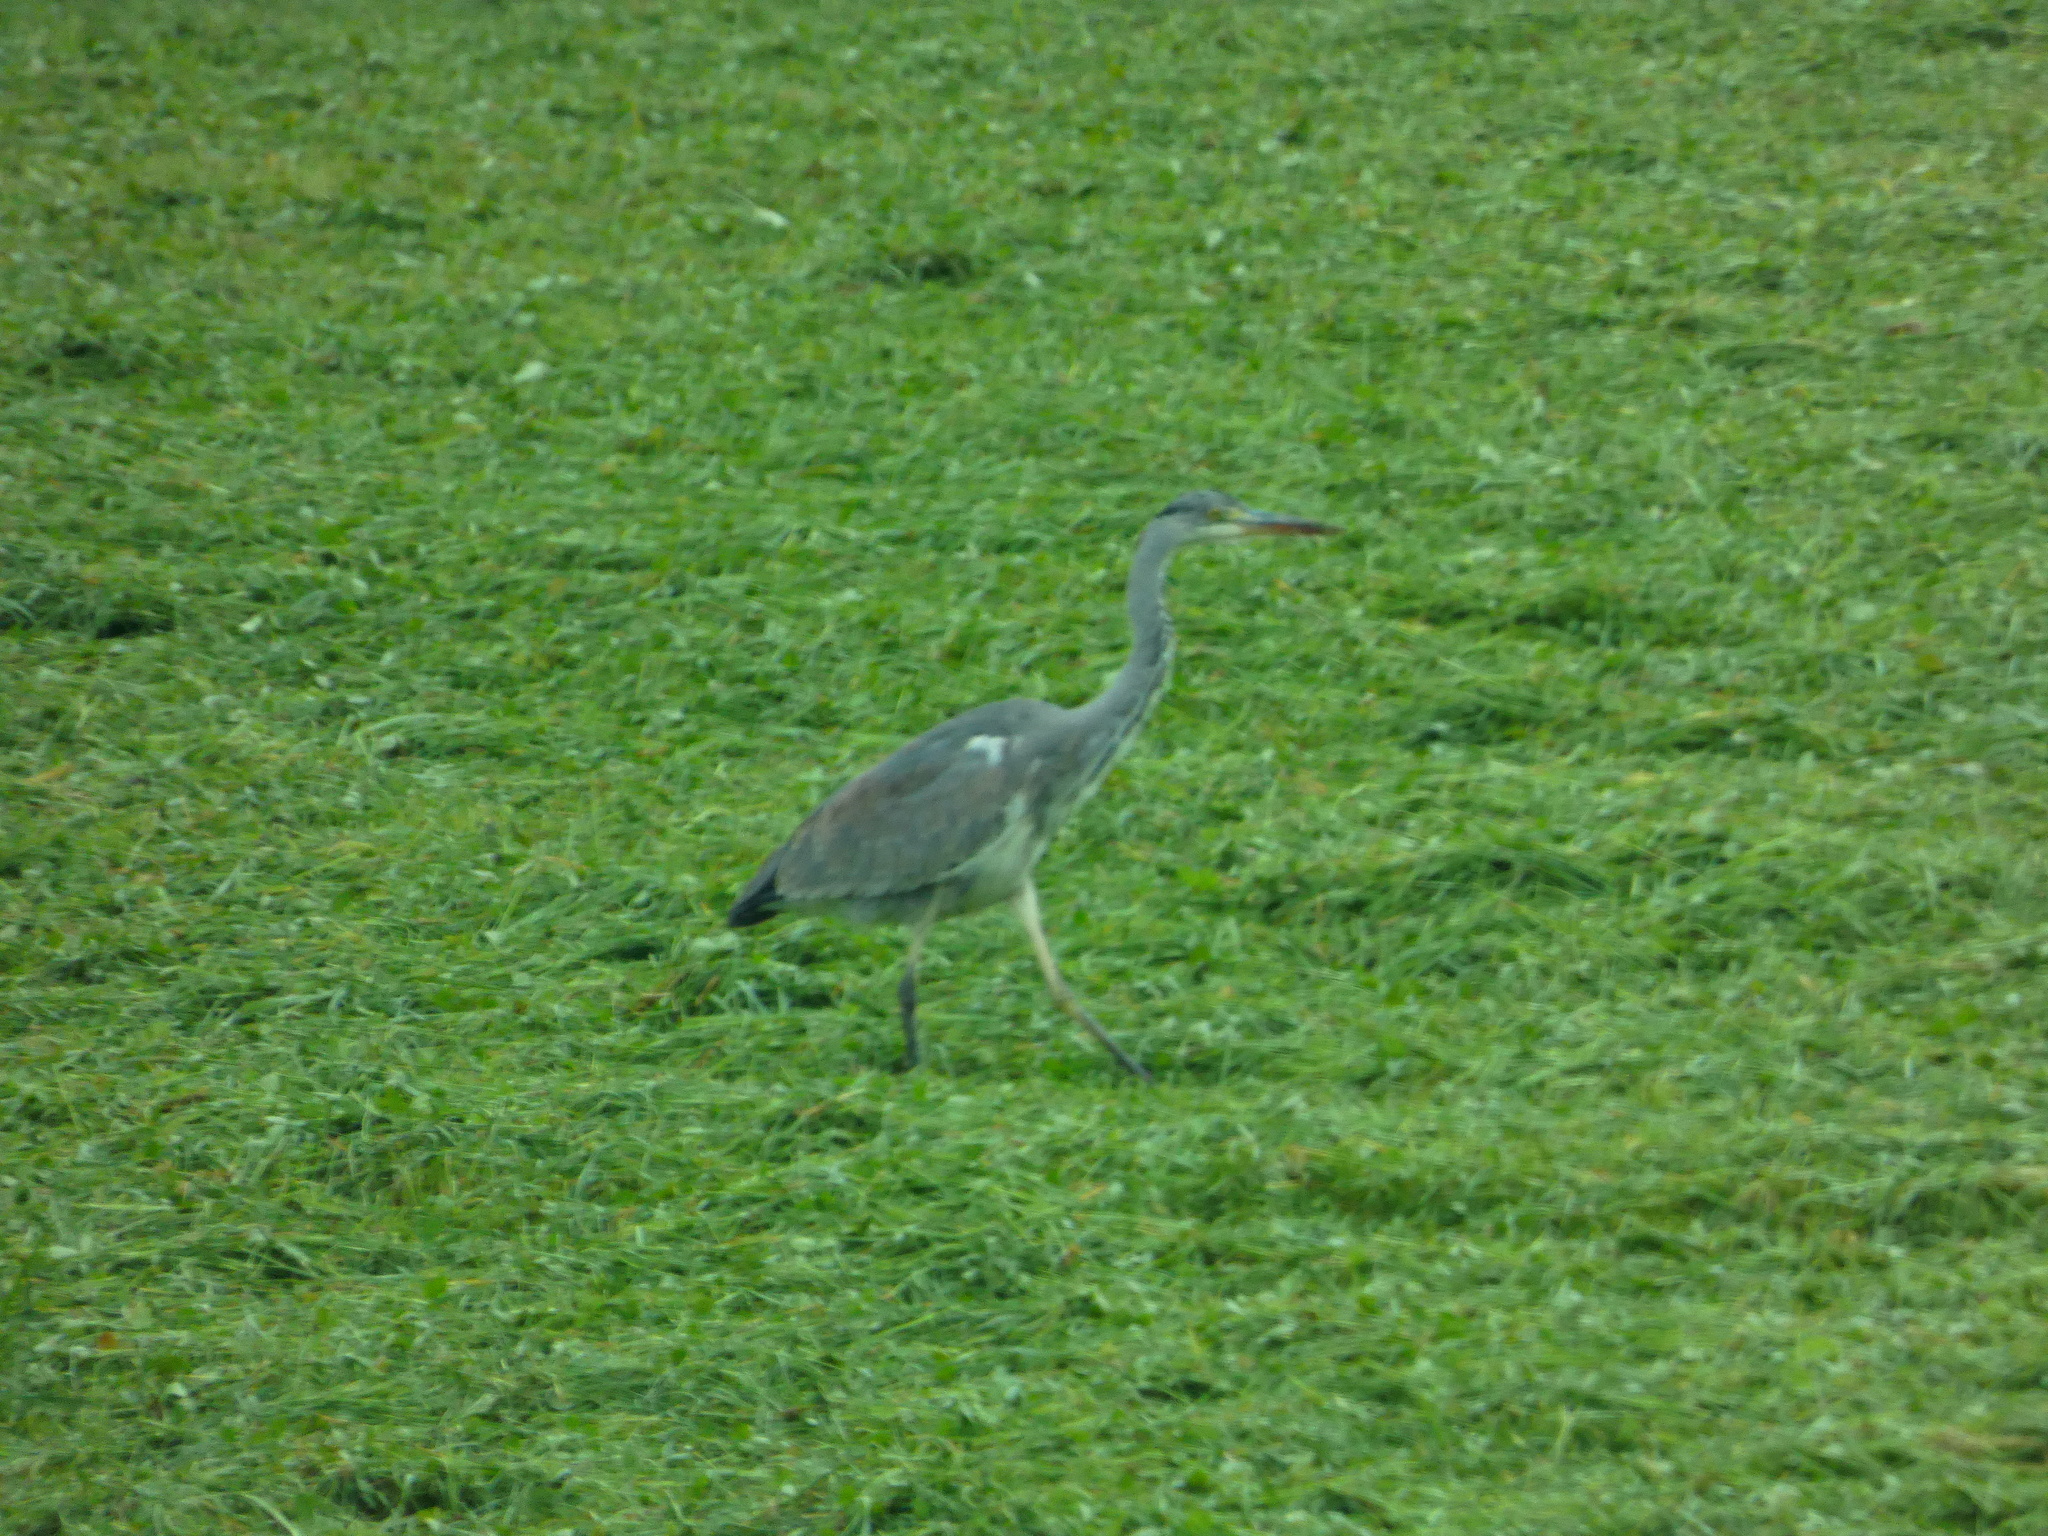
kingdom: Animalia
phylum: Chordata
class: Aves
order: Pelecaniformes
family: Ardeidae
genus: Ardea
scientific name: Ardea cinerea
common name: Grey heron
